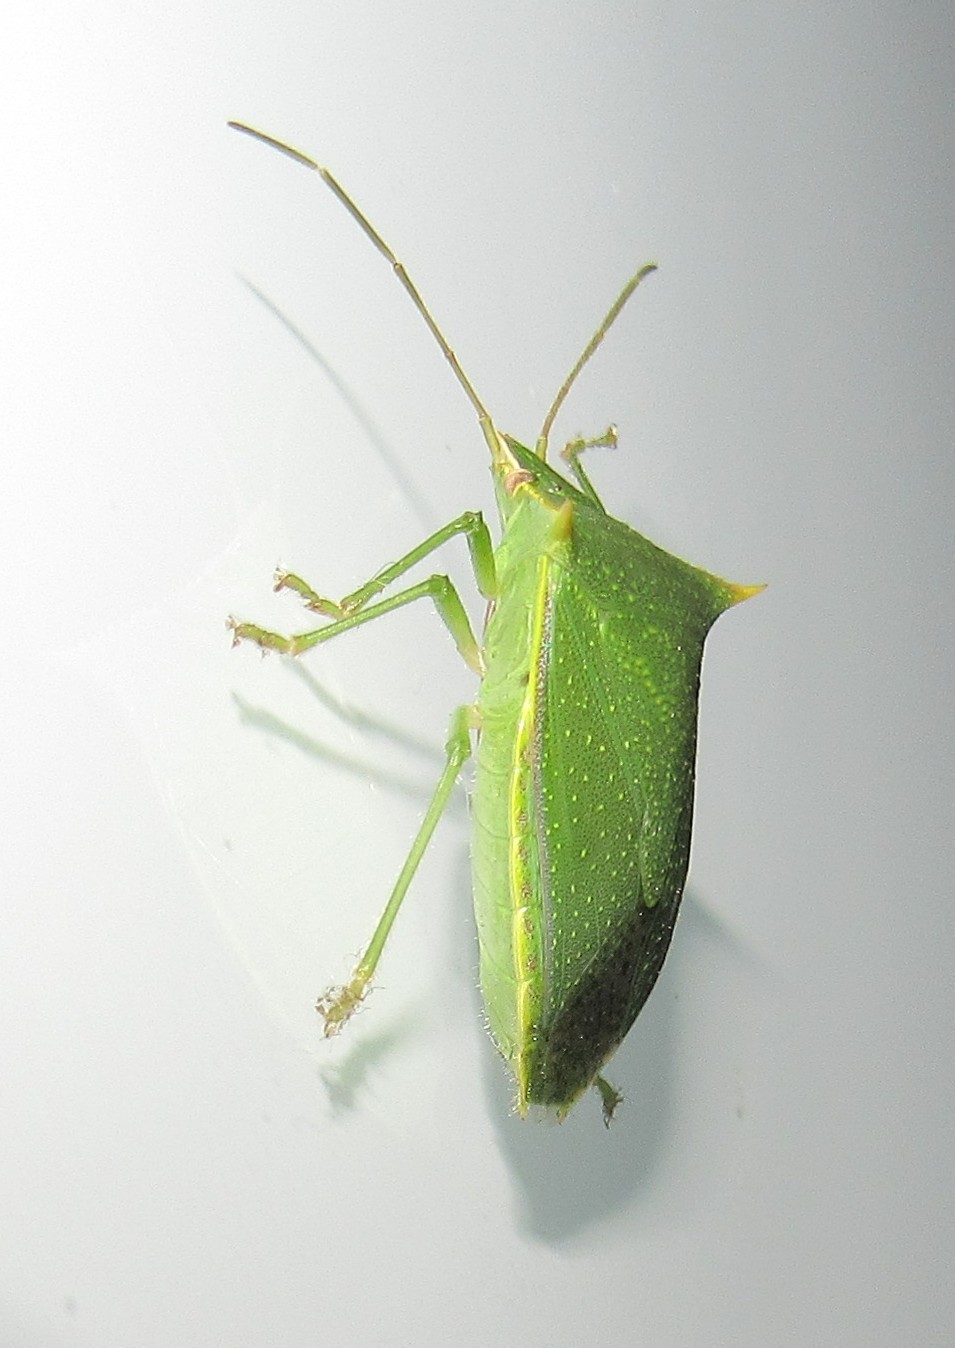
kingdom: Animalia
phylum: Arthropoda
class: Insecta
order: Hemiptera
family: Pentatomidae
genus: Loxa
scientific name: Loxa viridis
